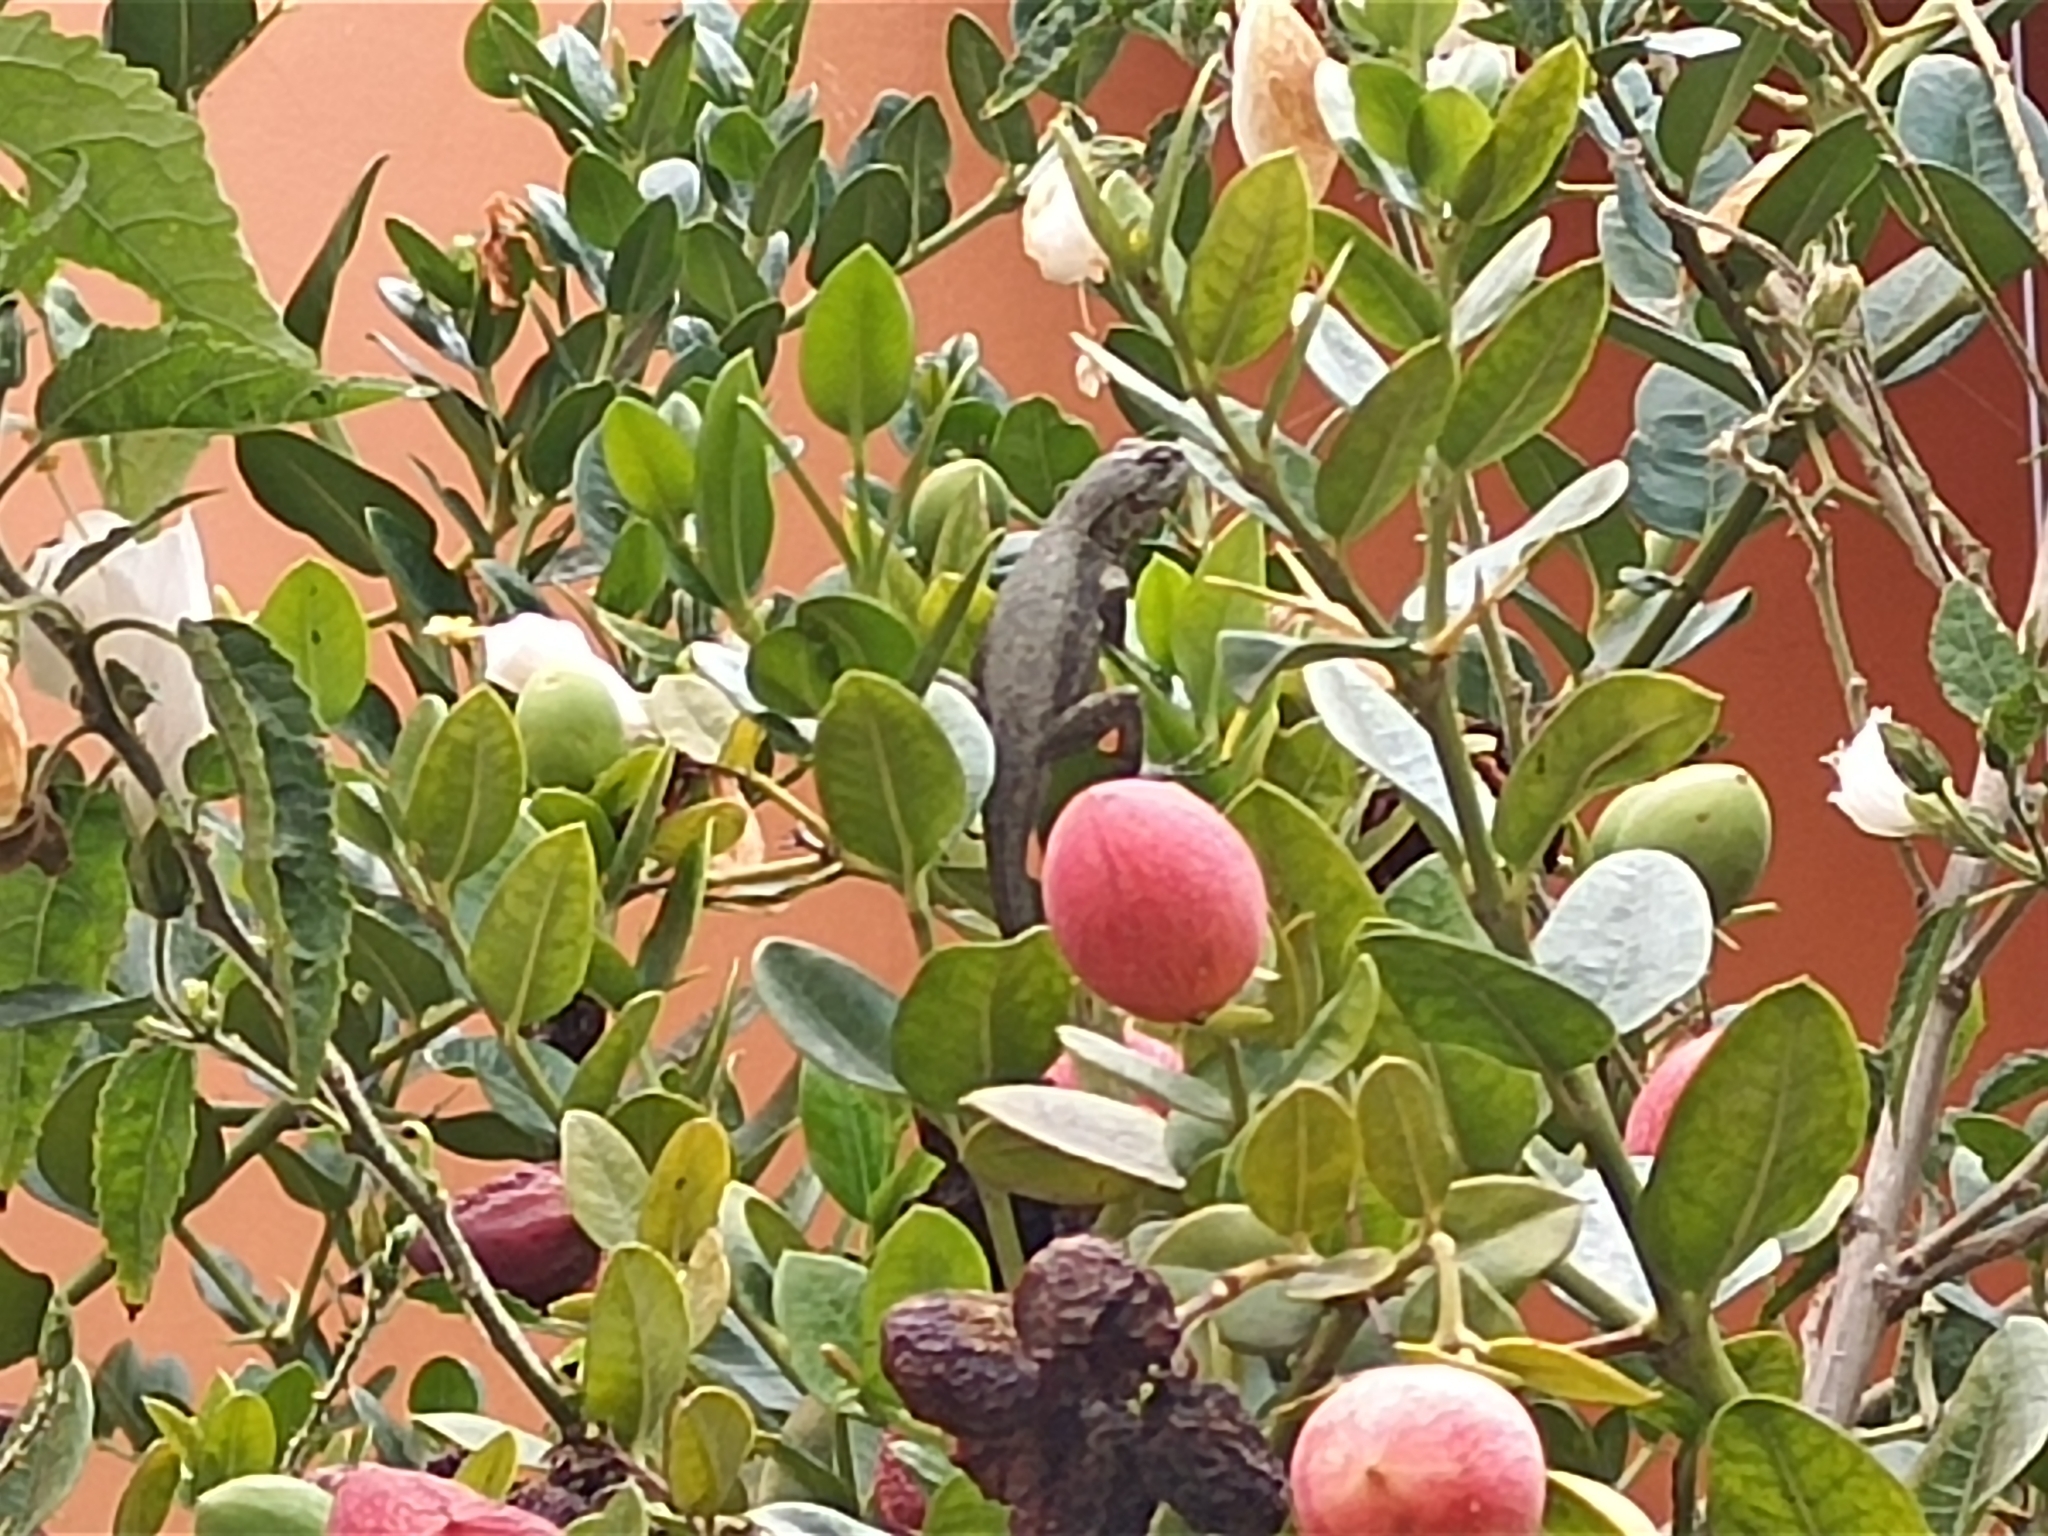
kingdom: Animalia
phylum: Chordata
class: Squamata
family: Phrynosomatidae
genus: Sceloporus
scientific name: Sceloporus grammicus
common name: Mesquite lizard
